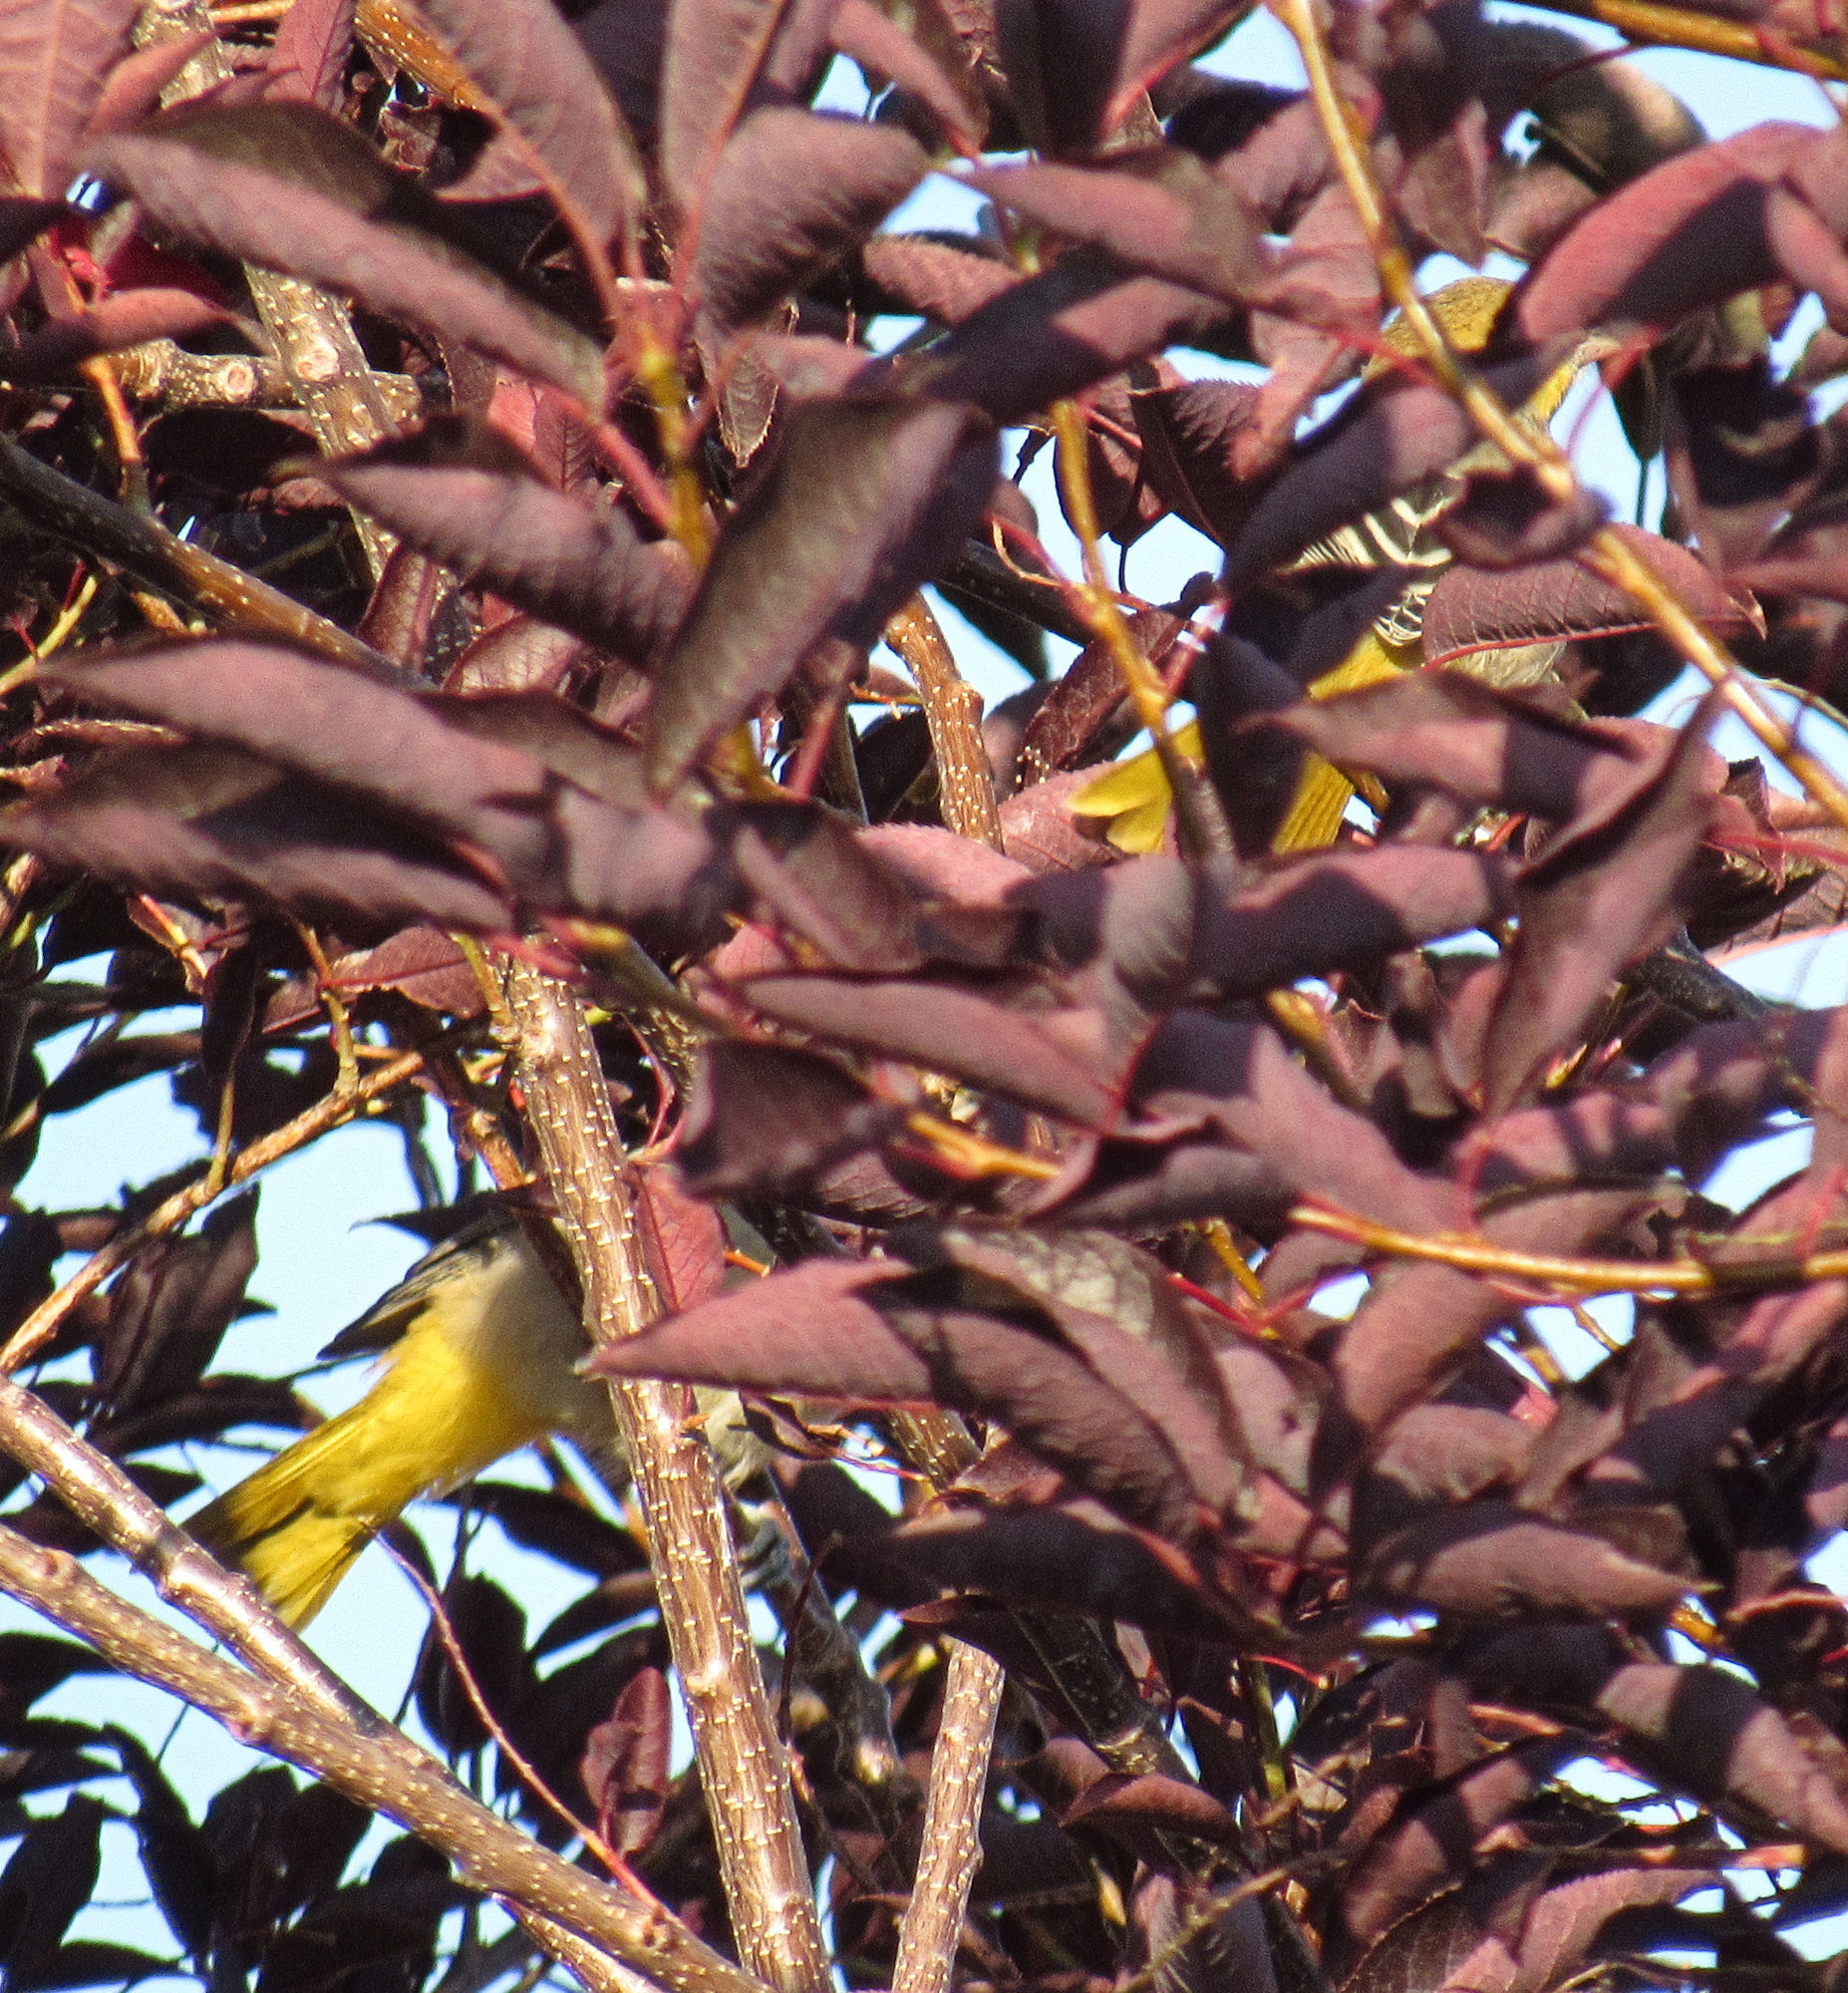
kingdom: Animalia
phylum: Chordata
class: Aves
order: Passeriformes
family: Icteridae
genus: Icterus
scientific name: Icterus bullockii
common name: Bullock's oriole
